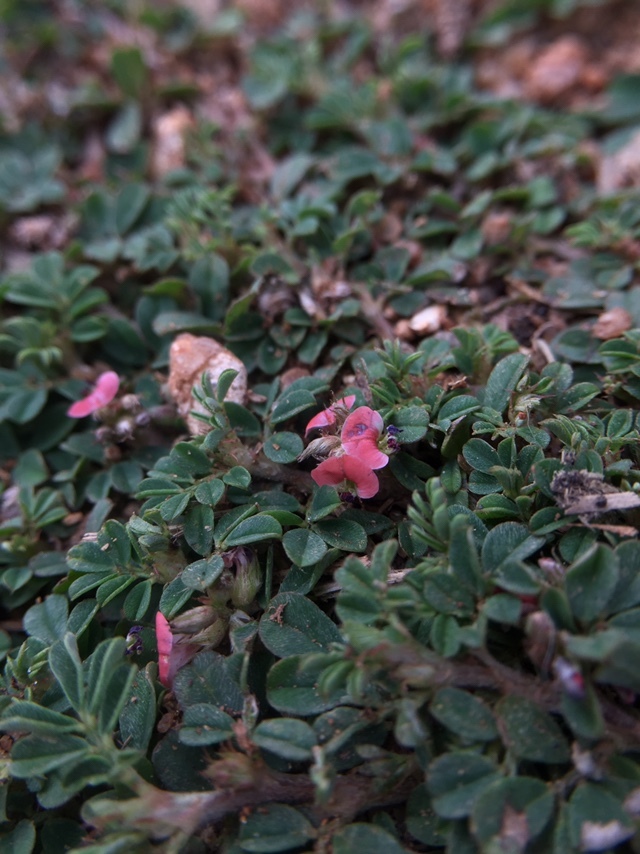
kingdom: Plantae
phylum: Tracheophyta
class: Magnoliopsida
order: Fabales
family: Fabaceae
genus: Indigofera
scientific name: Indigofera linnaei
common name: Nine-leaf indigo
